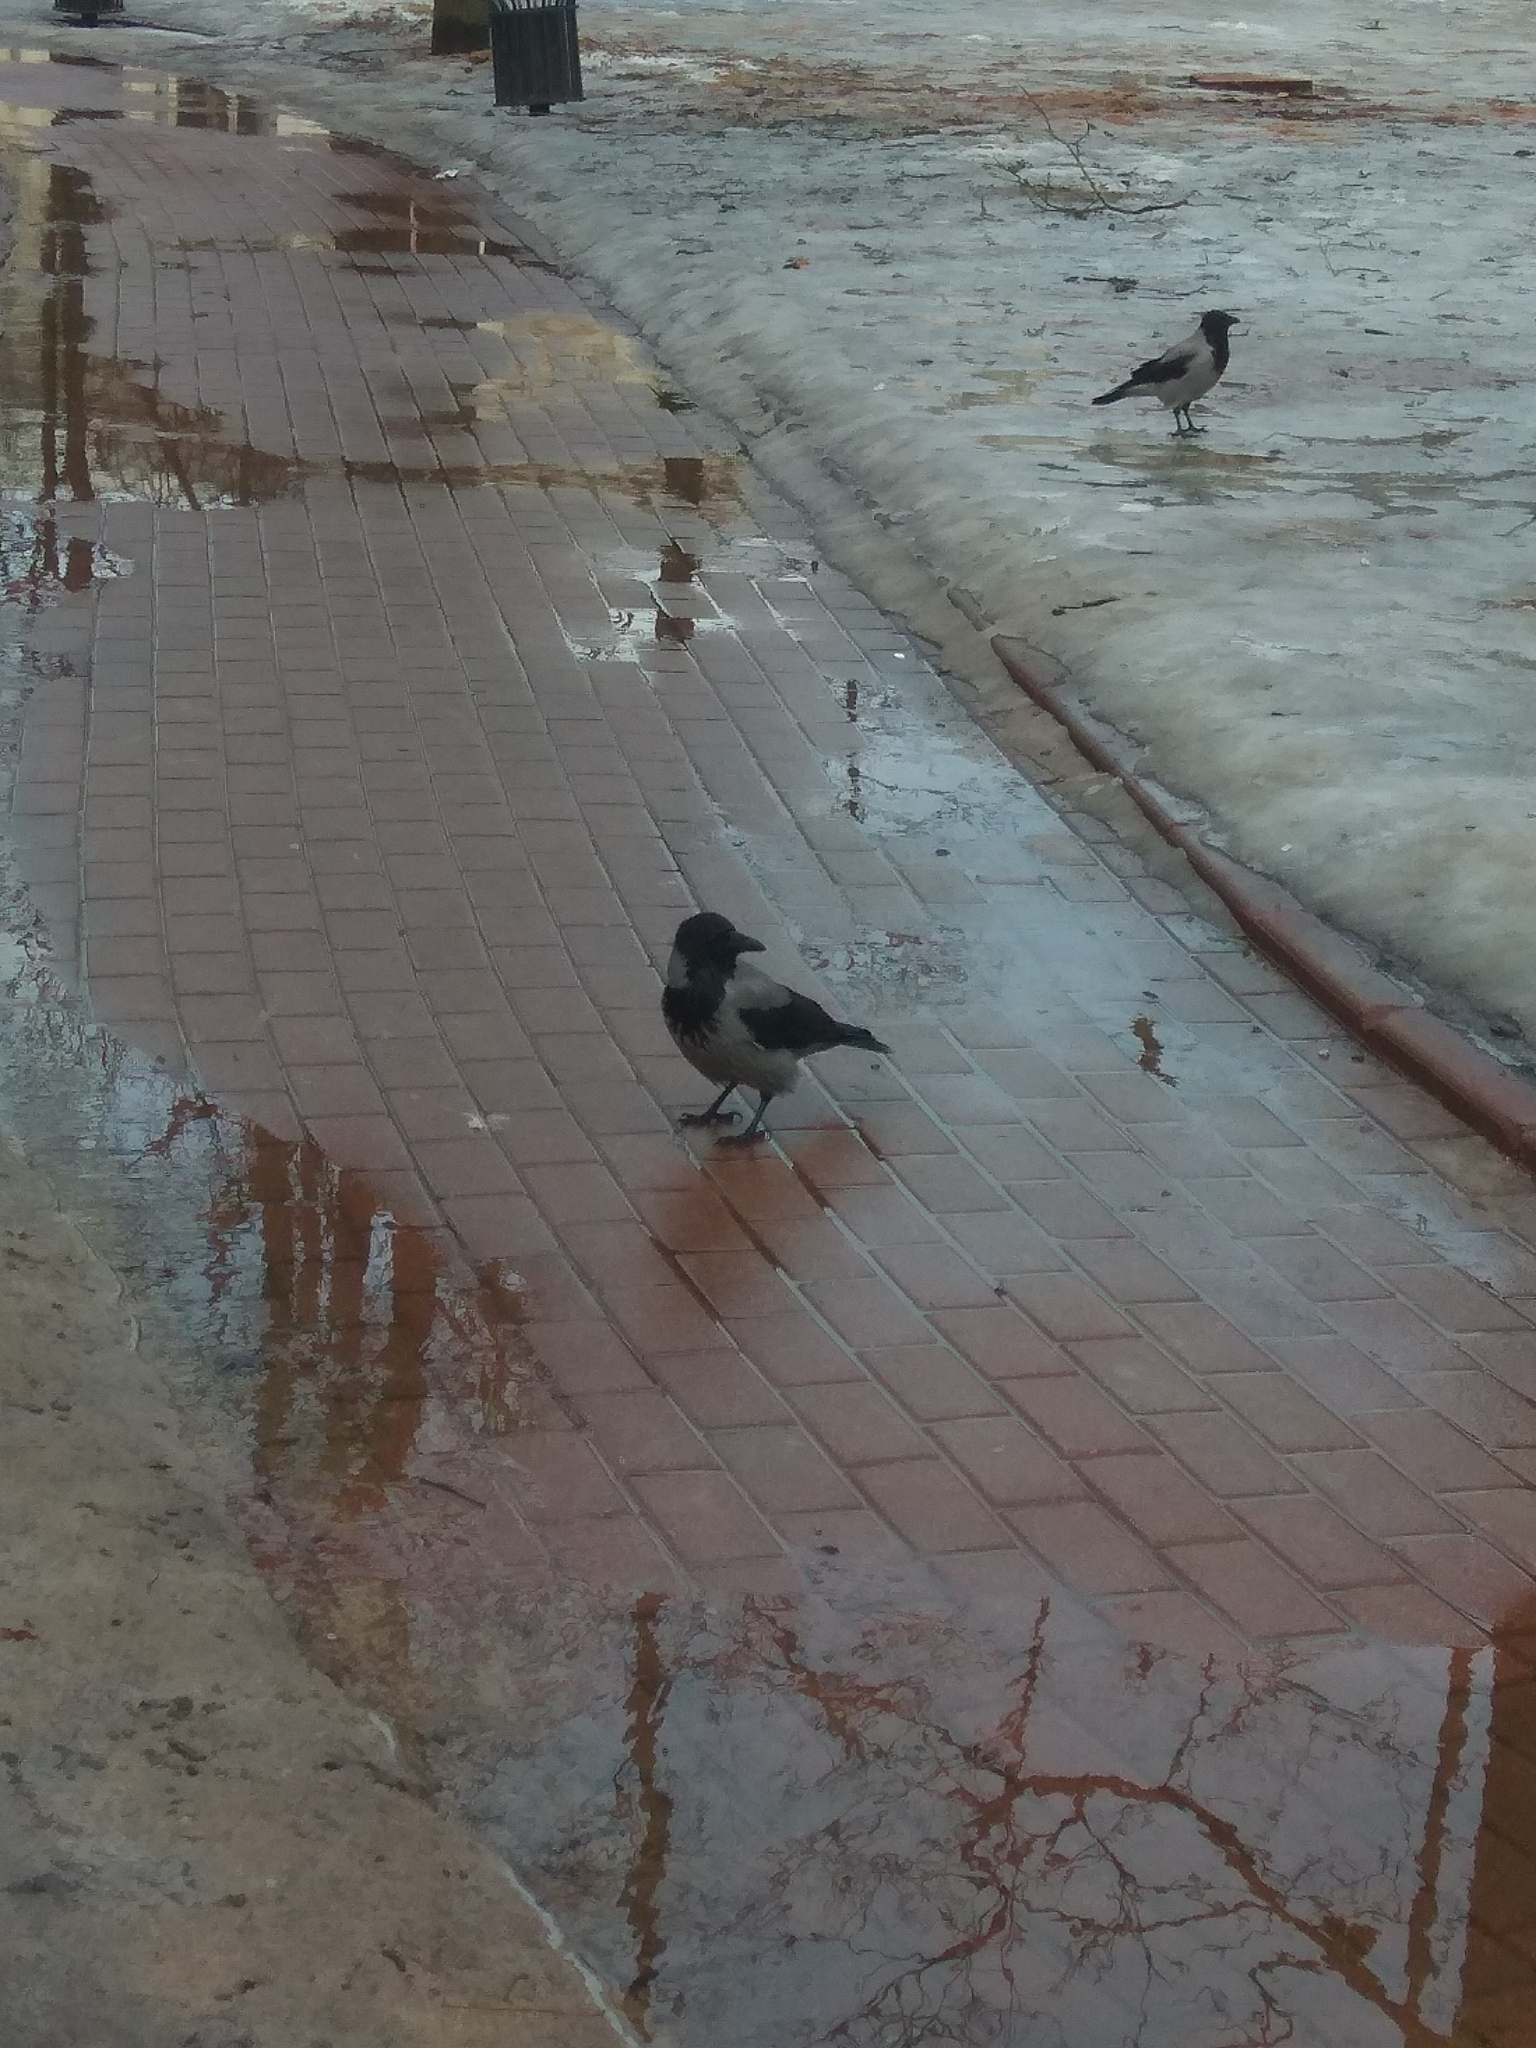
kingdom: Animalia
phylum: Chordata
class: Aves
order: Passeriformes
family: Corvidae
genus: Corvus
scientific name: Corvus cornix
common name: Hooded crow
